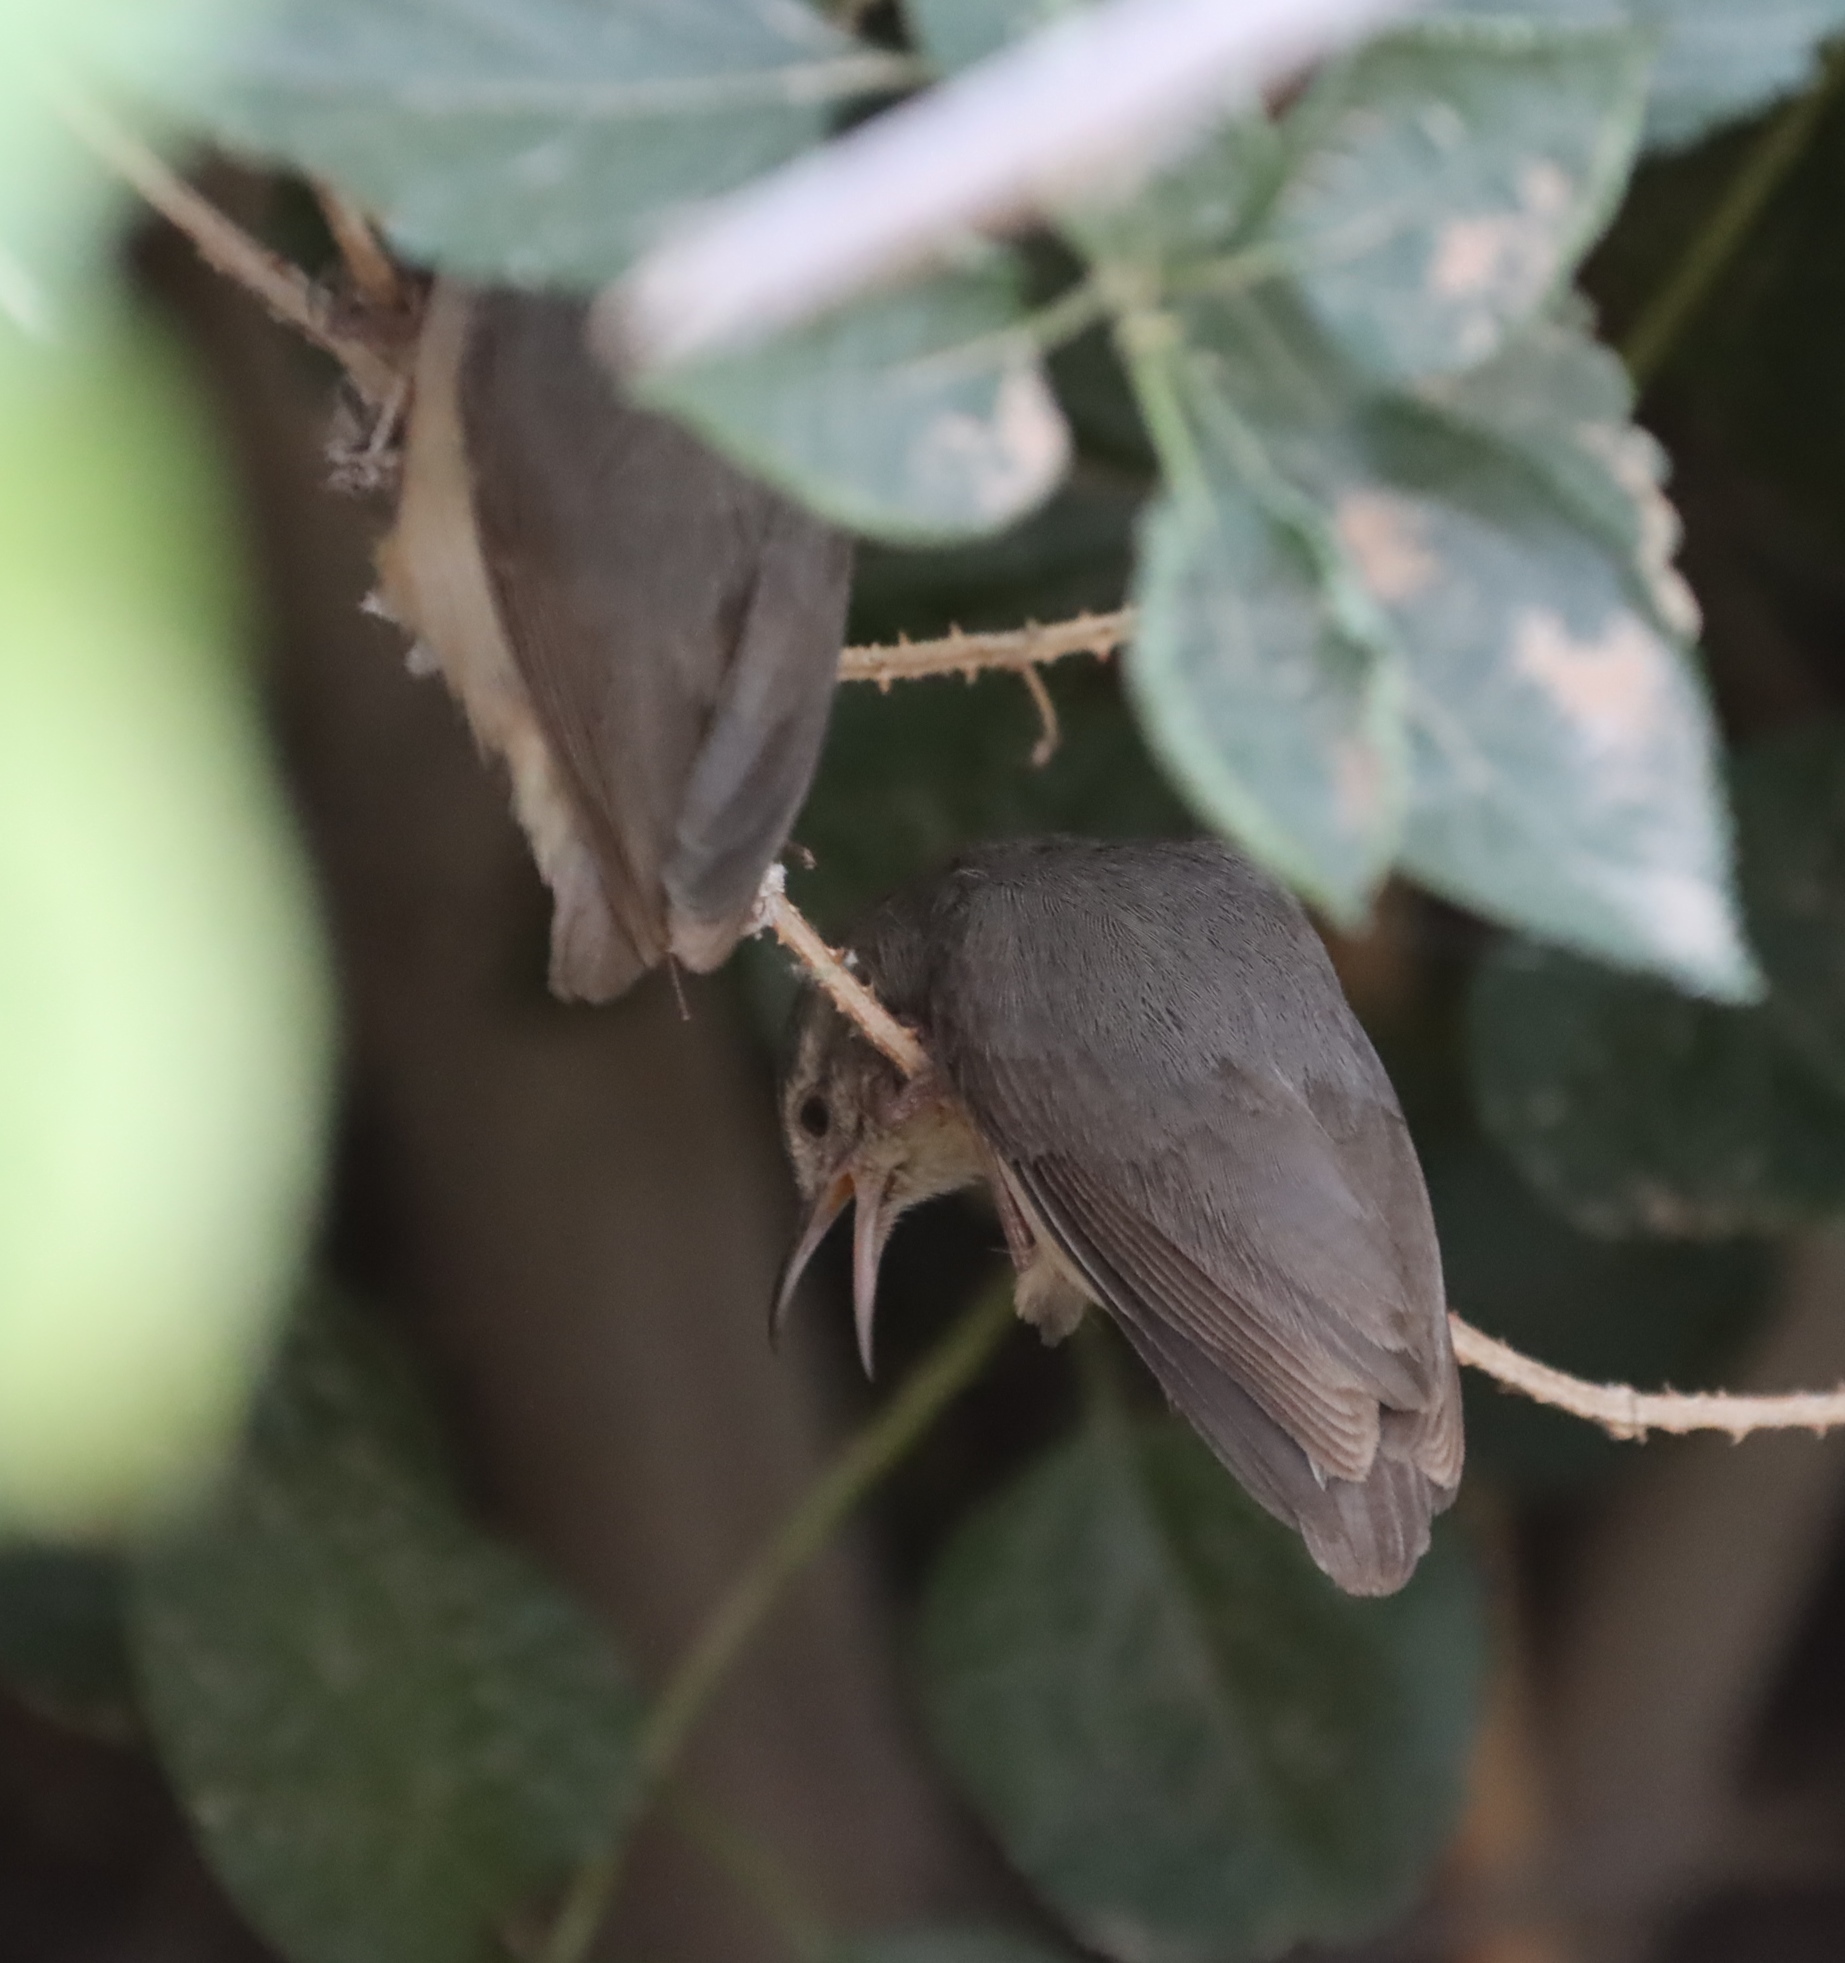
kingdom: Animalia
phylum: Chordata
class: Aves
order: Passeriformes
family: Macrosphenidae
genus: Sylvietta
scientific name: Sylvietta rufescens
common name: Long-billed crombec
